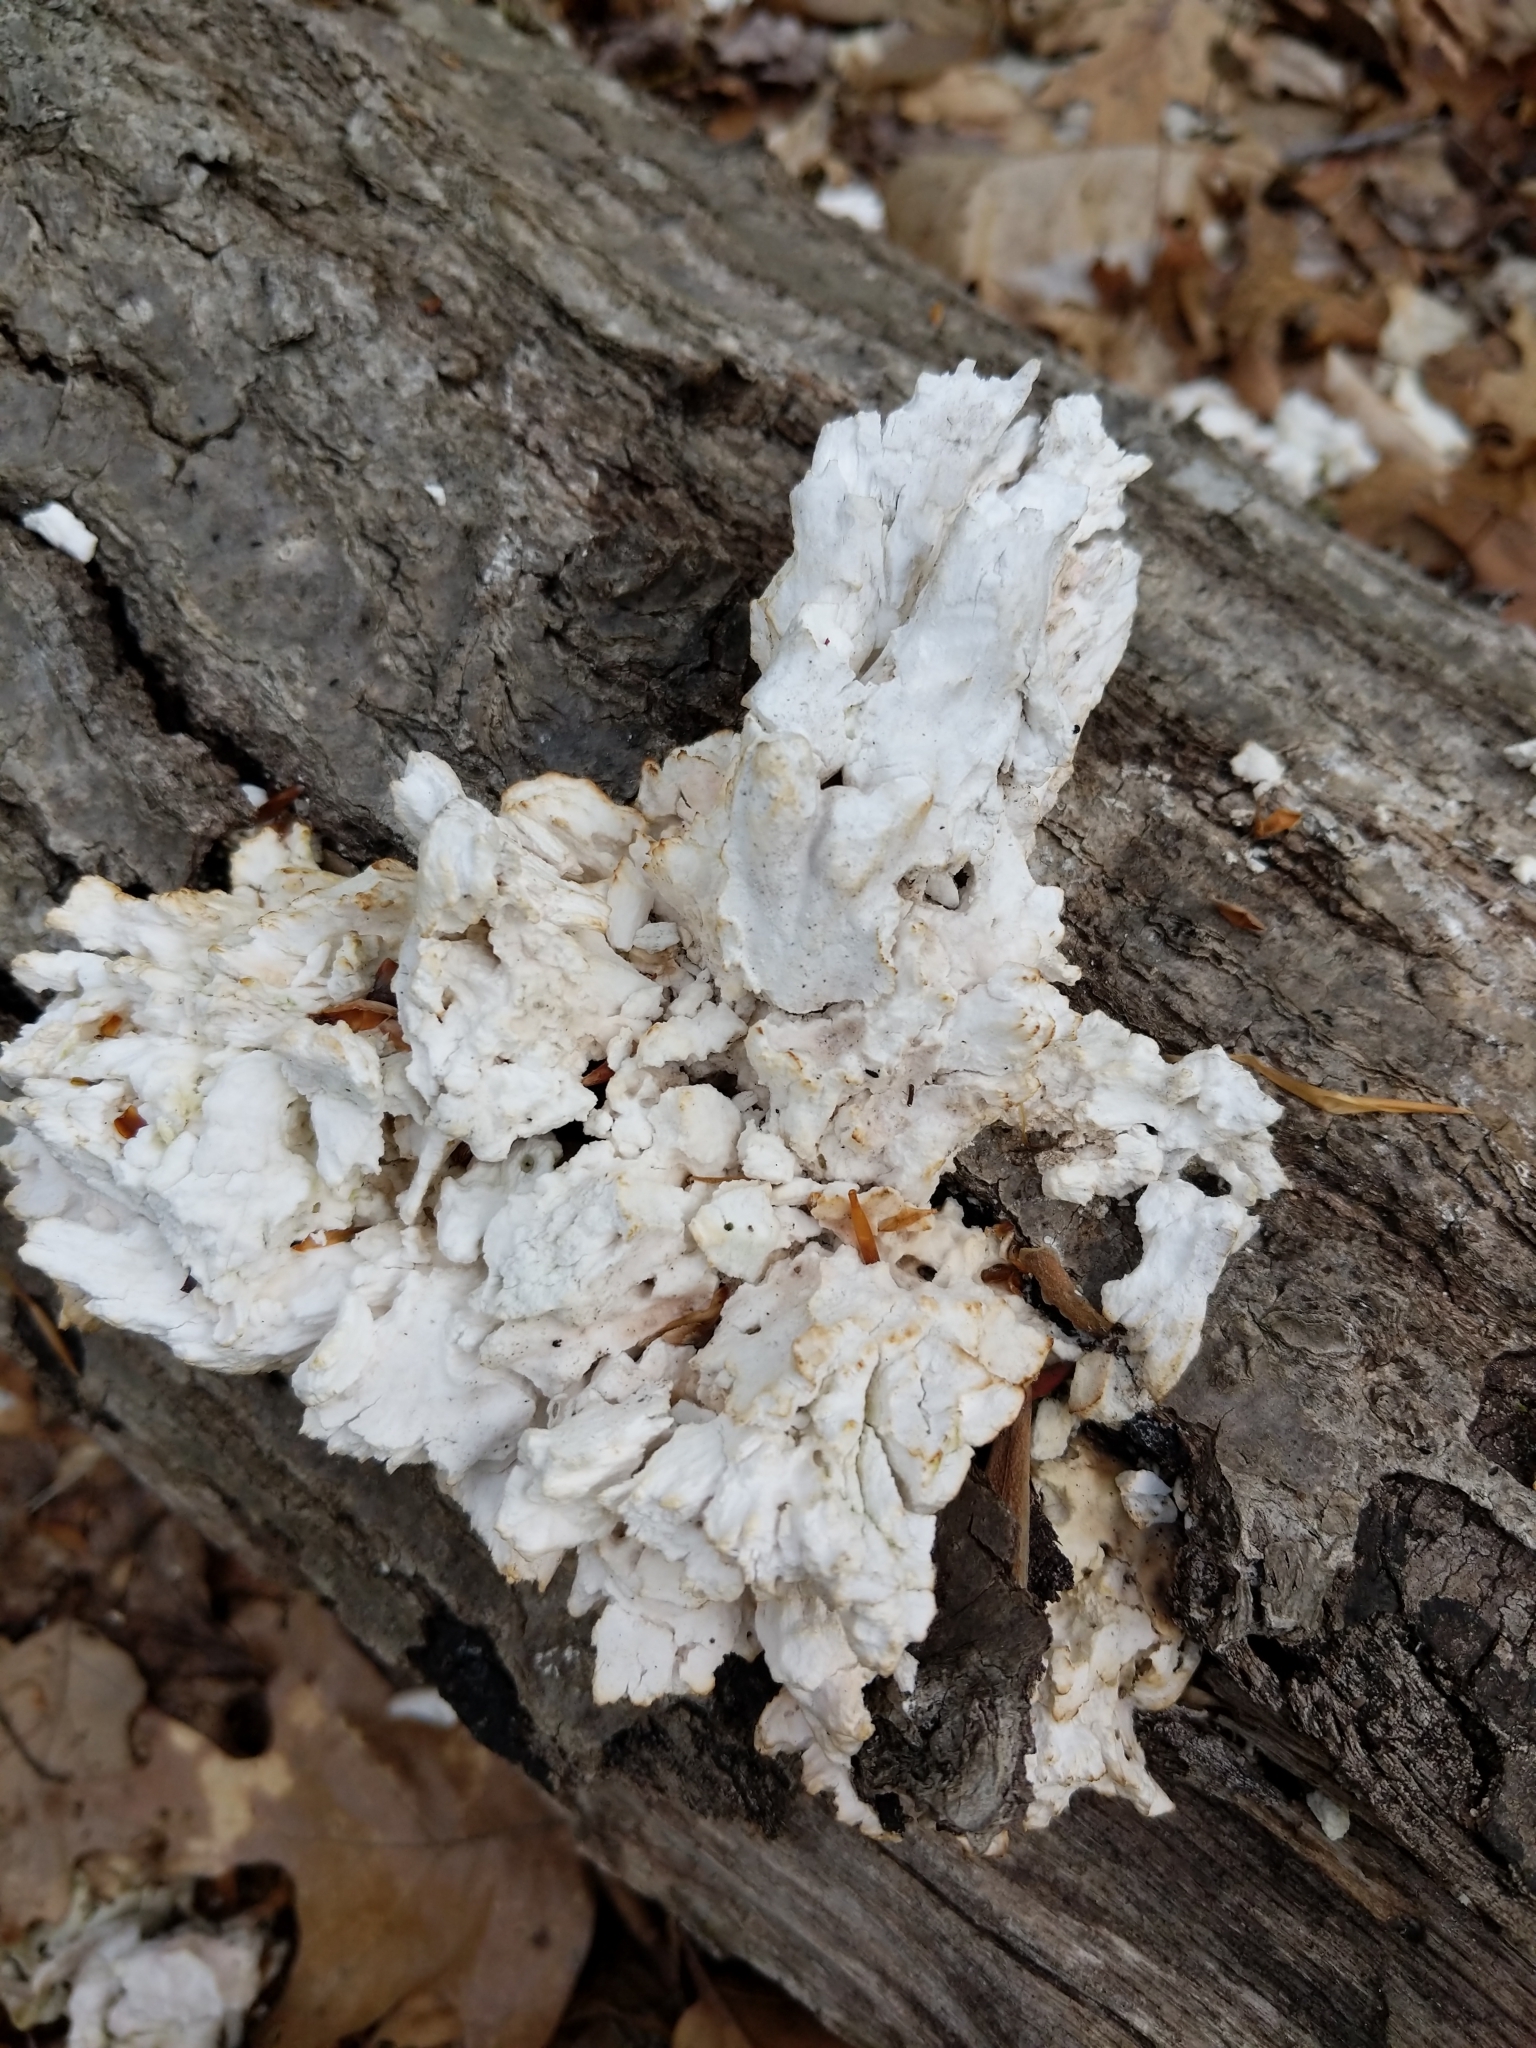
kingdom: Fungi
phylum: Basidiomycota
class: Agaricomycetes
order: Polyporales
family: Laetiporaceae
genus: Laetiporus
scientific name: Laetiporus sulphureus
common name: Chicken of the woods
